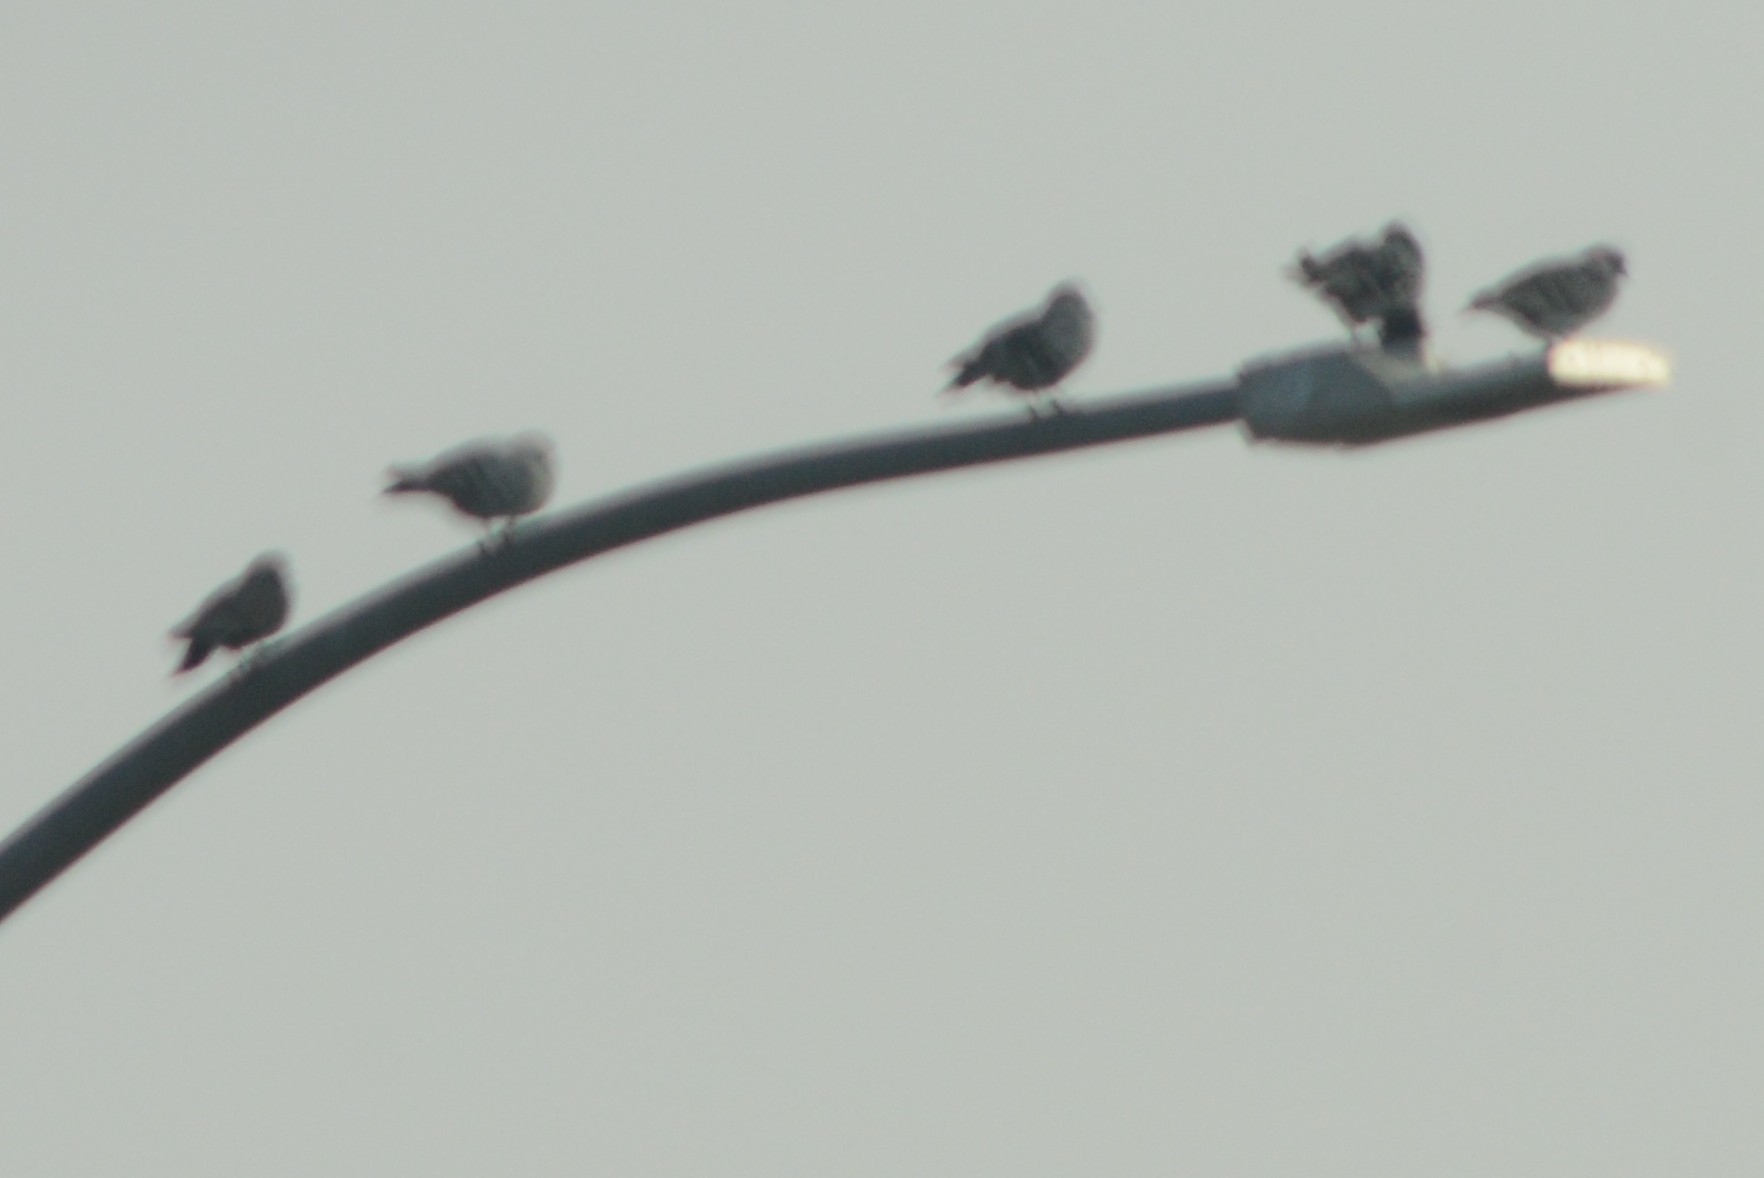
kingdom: Animalia
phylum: Chordata
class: Aves
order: Columbiformes
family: Columbidae
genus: Columba
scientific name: Columba livia
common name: Rock pigeon
